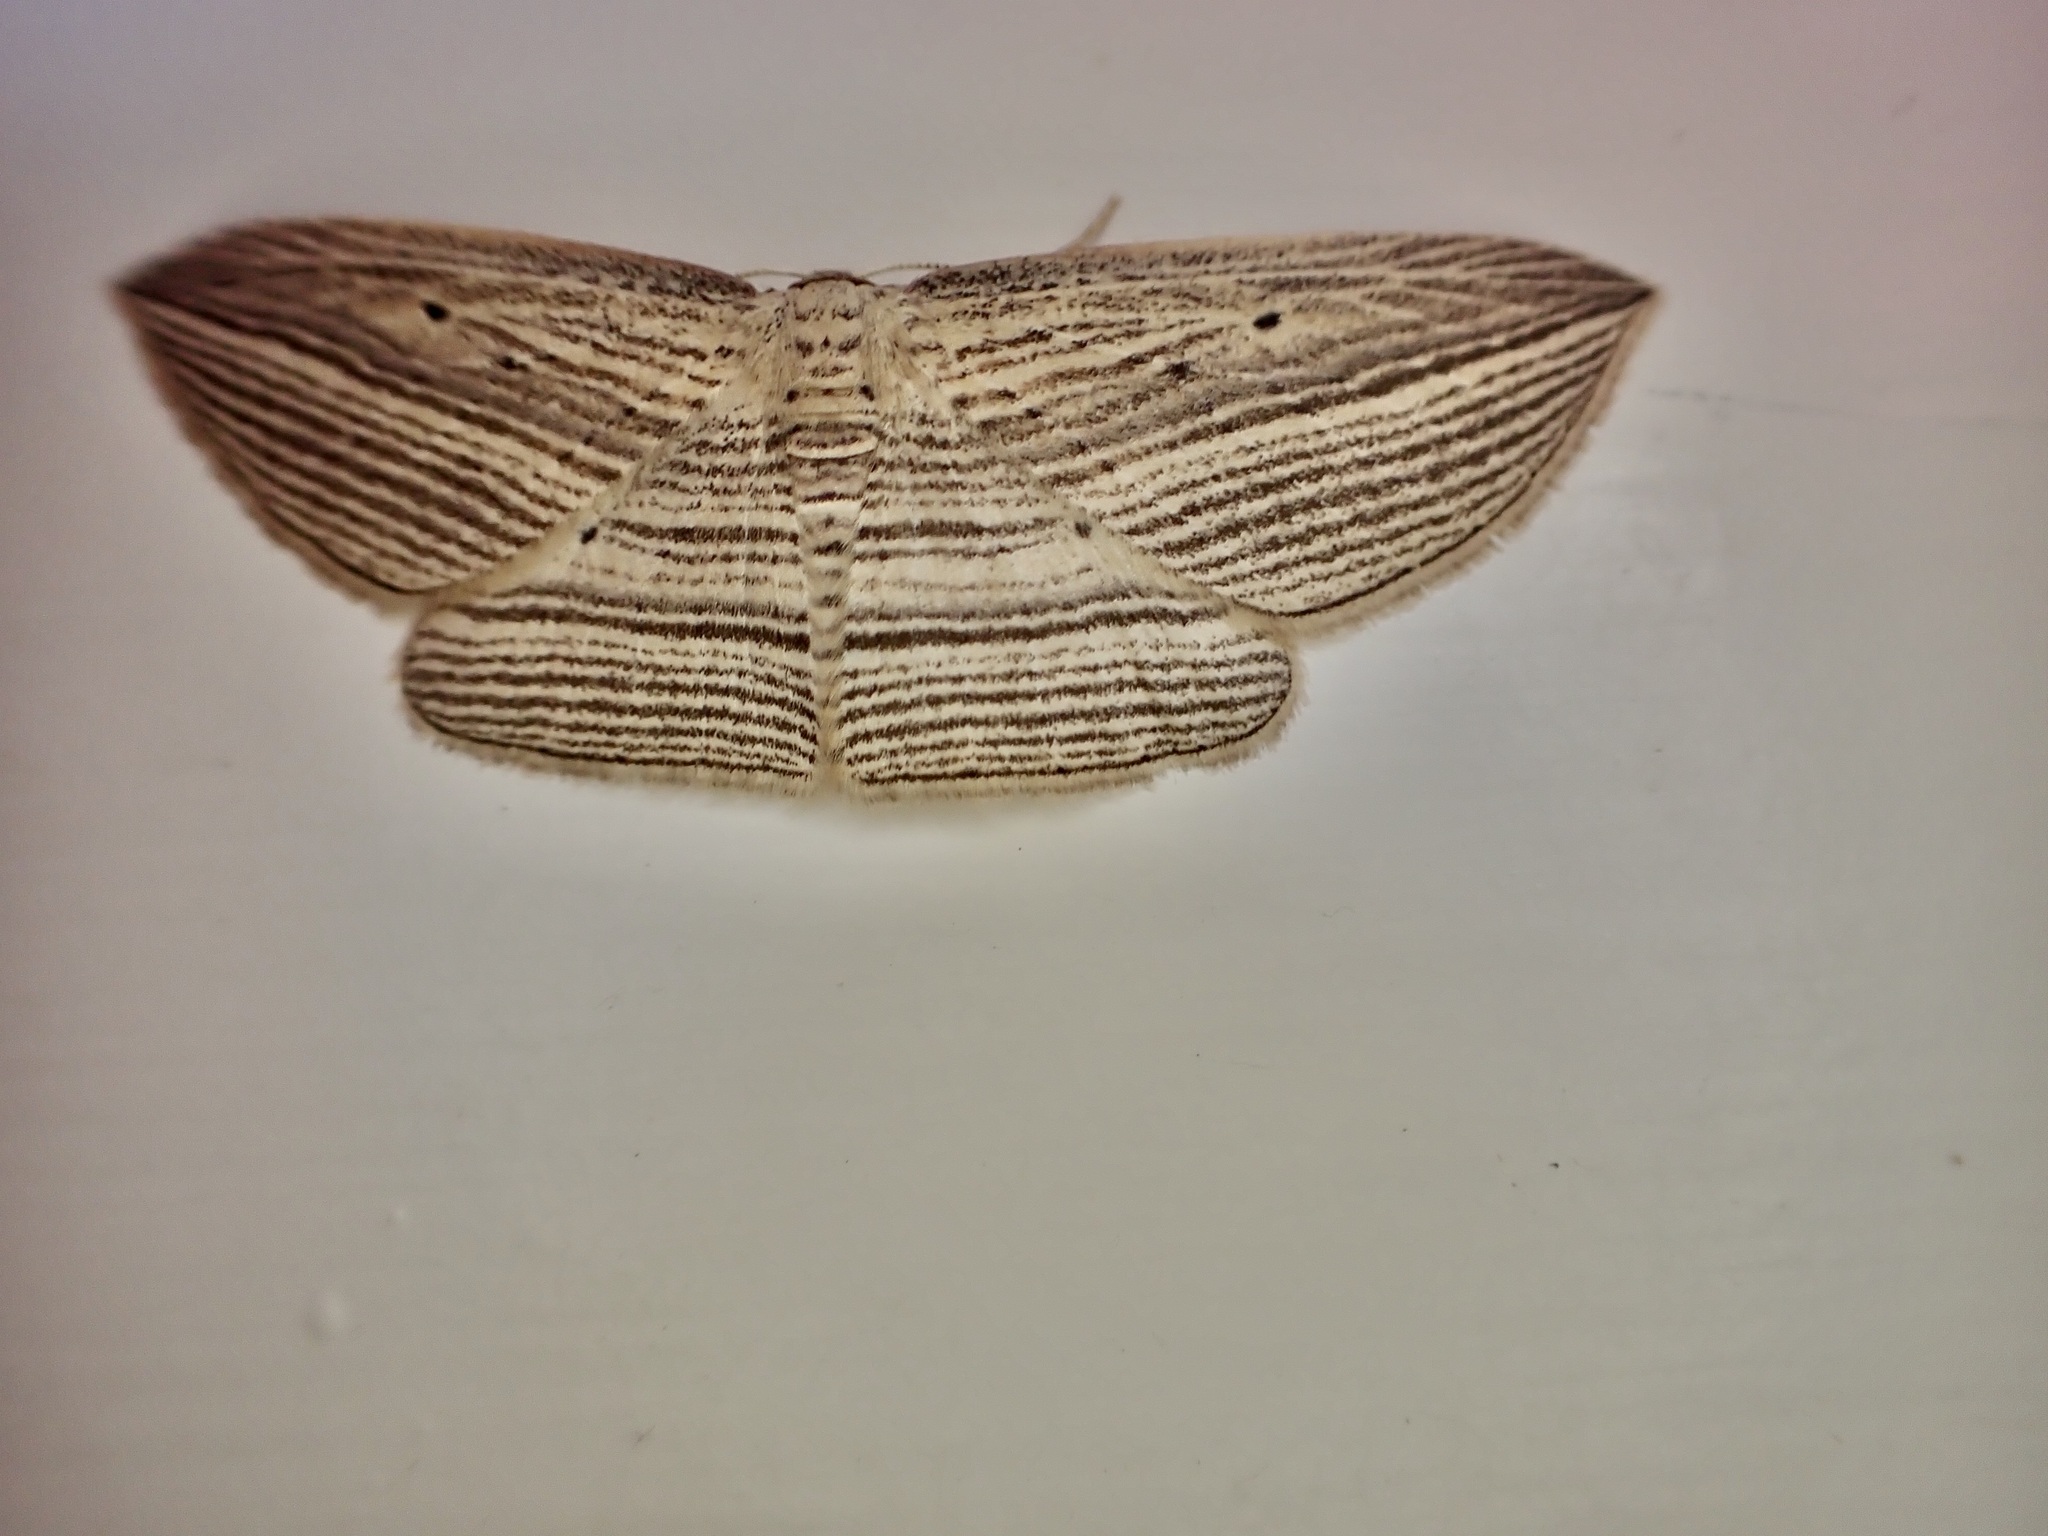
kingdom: Animalia
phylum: Arthropoda
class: Insecta
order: Lepidoptera
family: Geometridae
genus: Epiphryne
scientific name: Epiphryne verriculata
